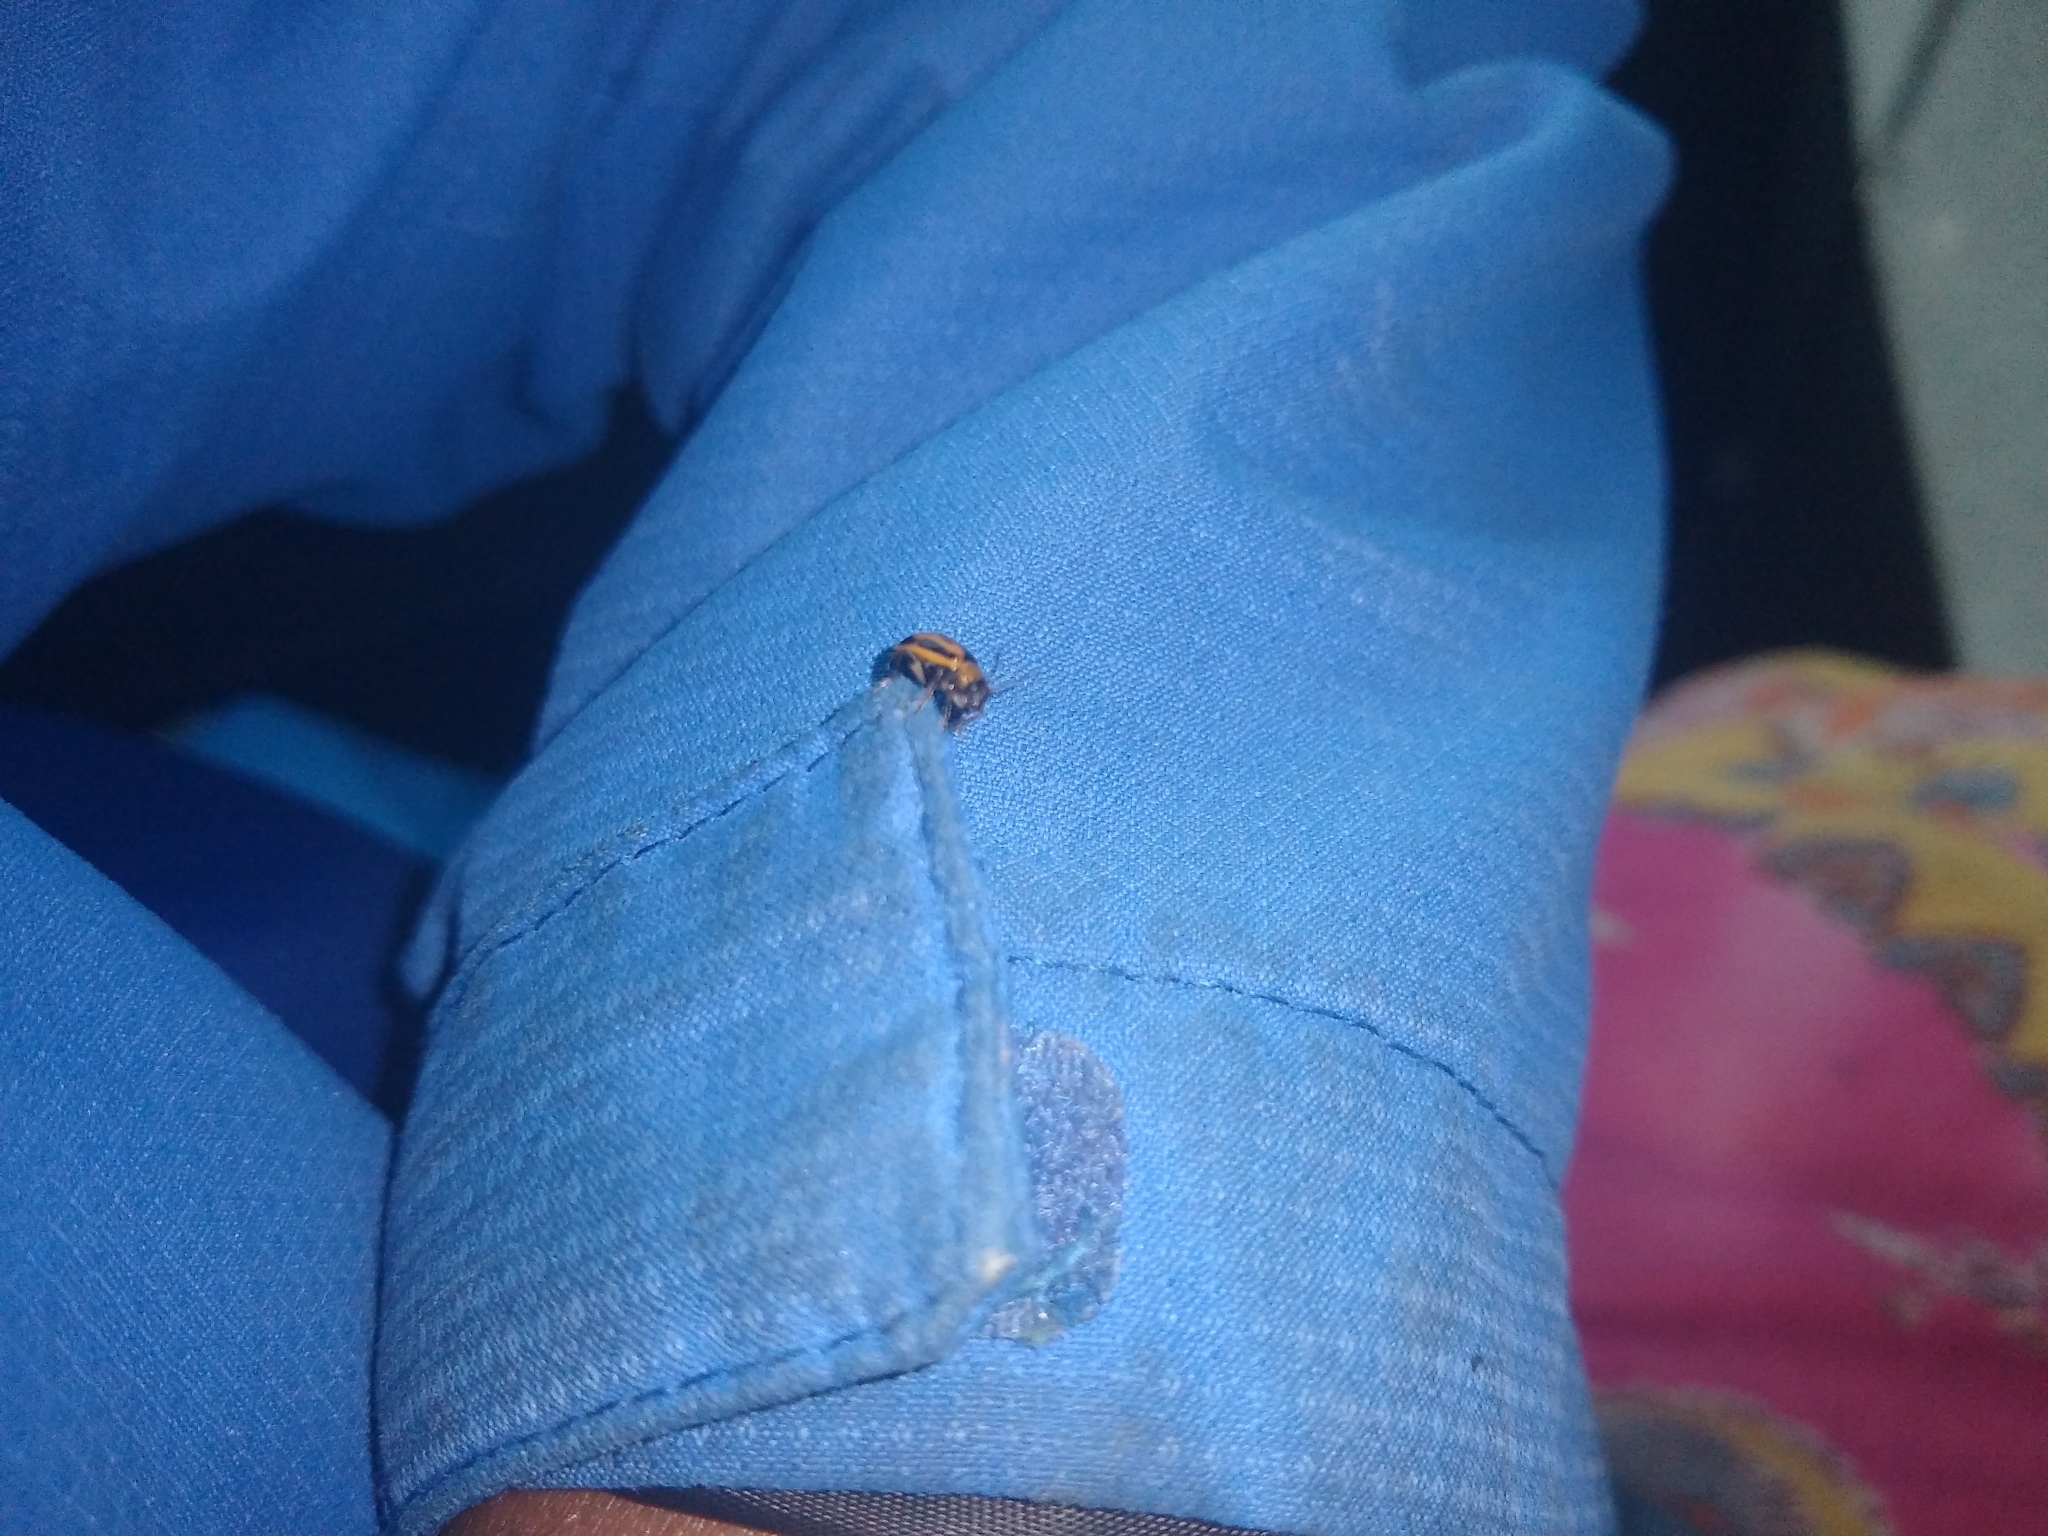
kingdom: Animalia
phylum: Arthropoda
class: Insecta
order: Coleoptera
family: Chrysomelidae
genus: Cerotoma
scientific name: Cerotoma trifurcata
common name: Bean leaf beetle
